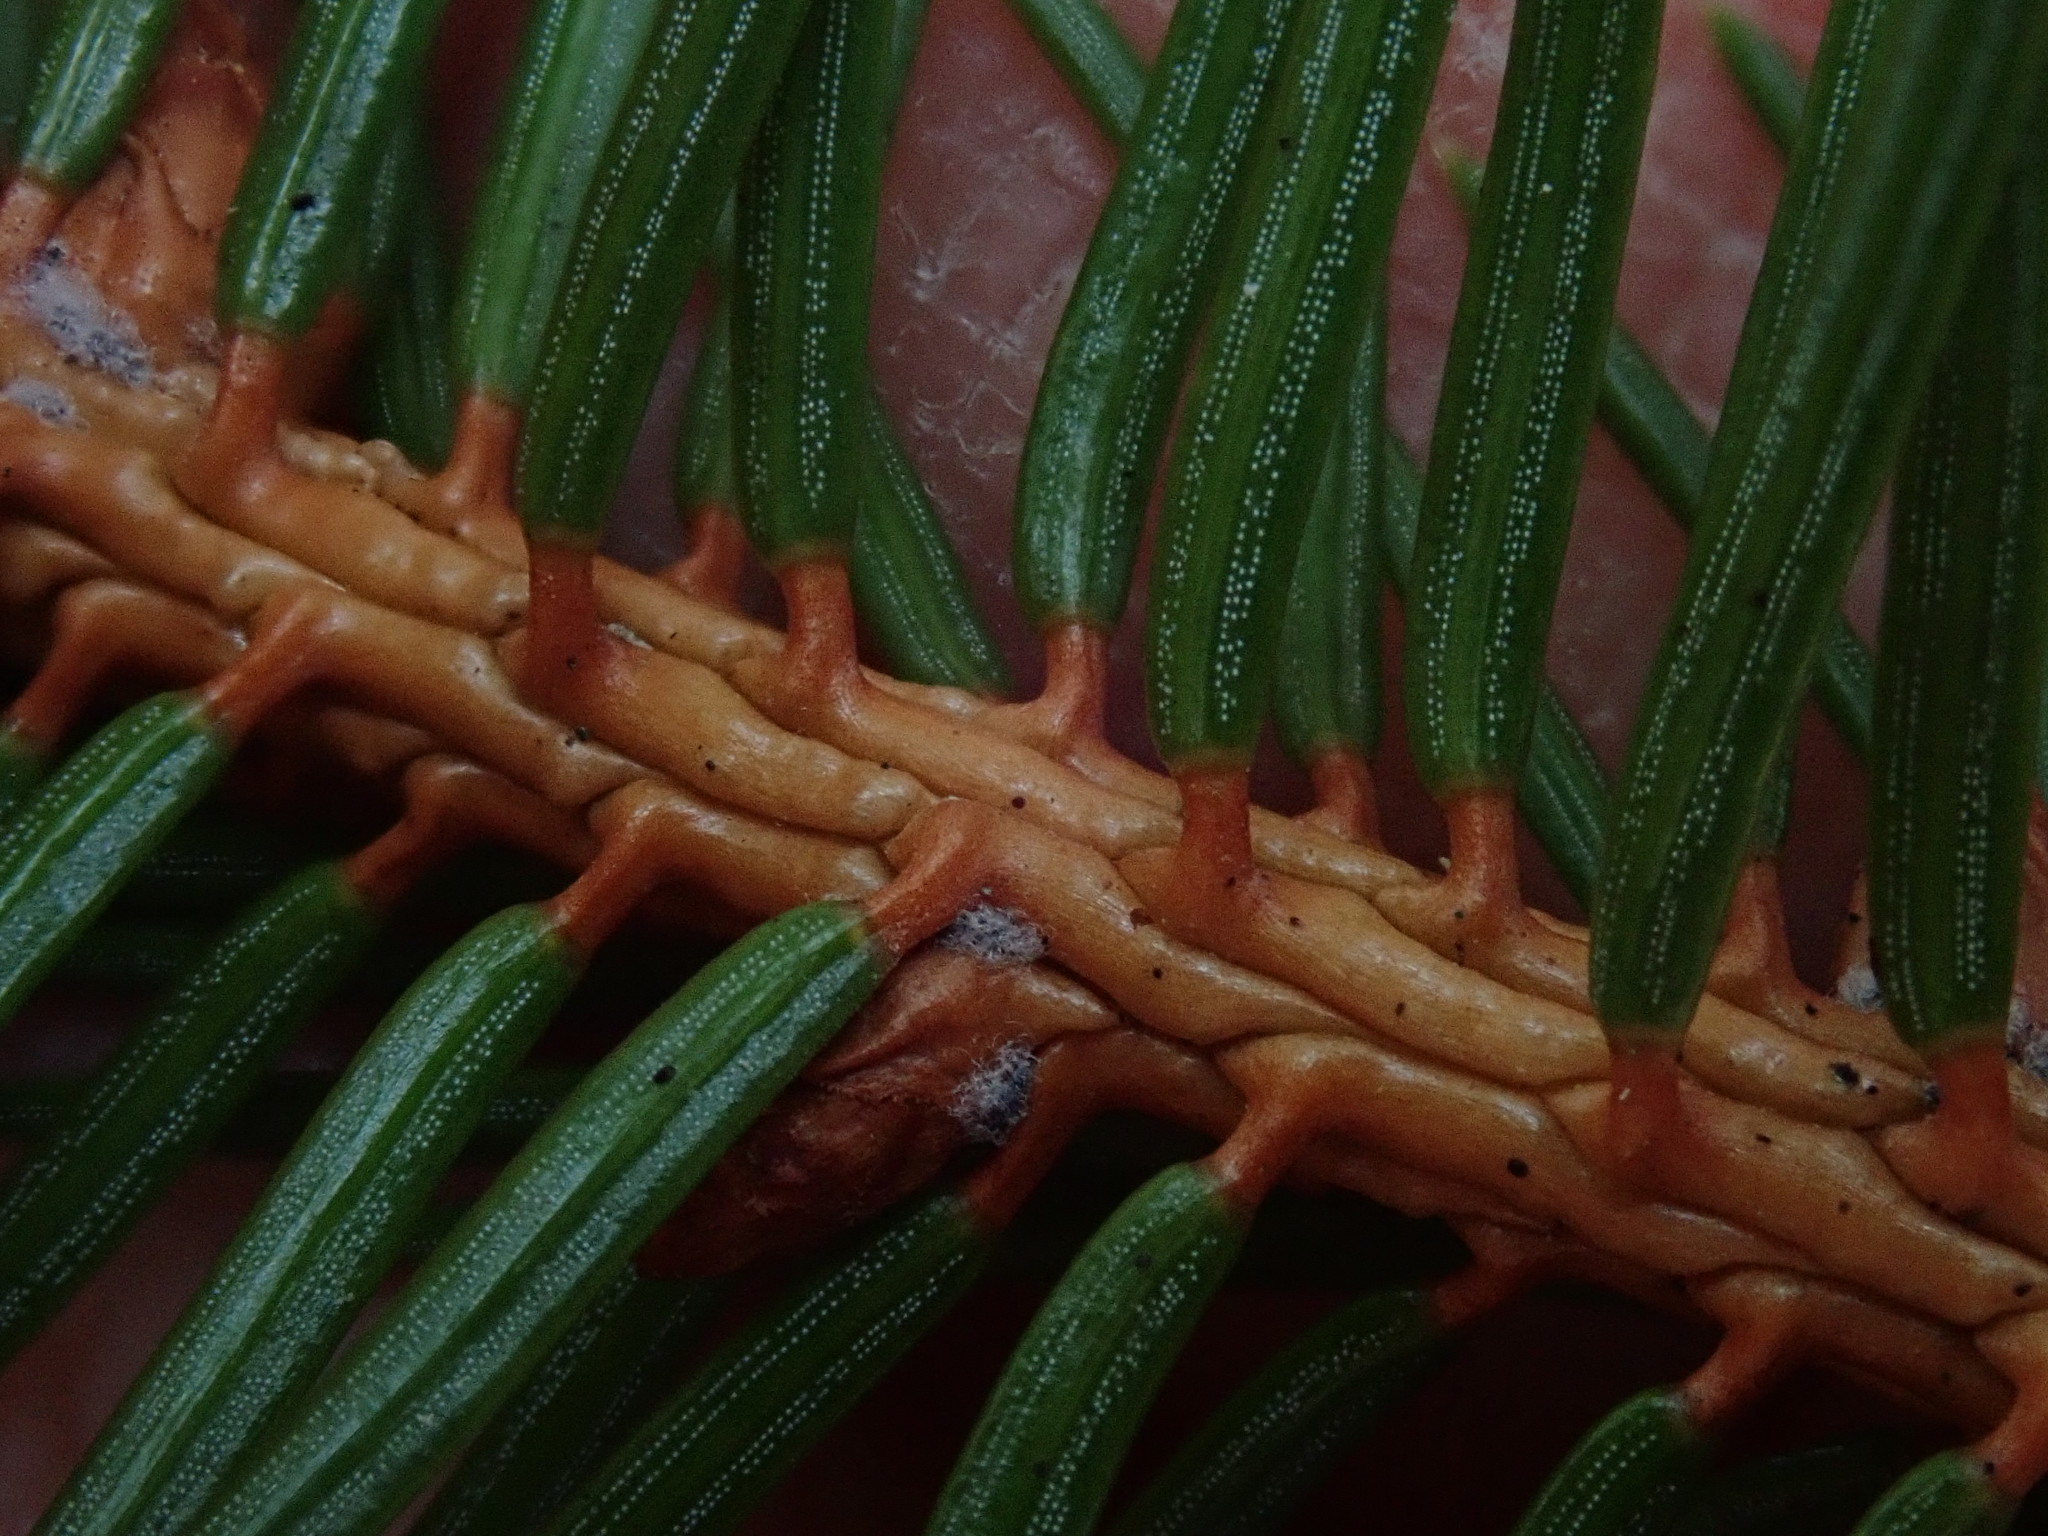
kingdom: Plantae
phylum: Tracheophyta
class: Pinopsida
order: Pinales
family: Pinaceae
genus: Picea
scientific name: Picea abies
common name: Norway spruce
